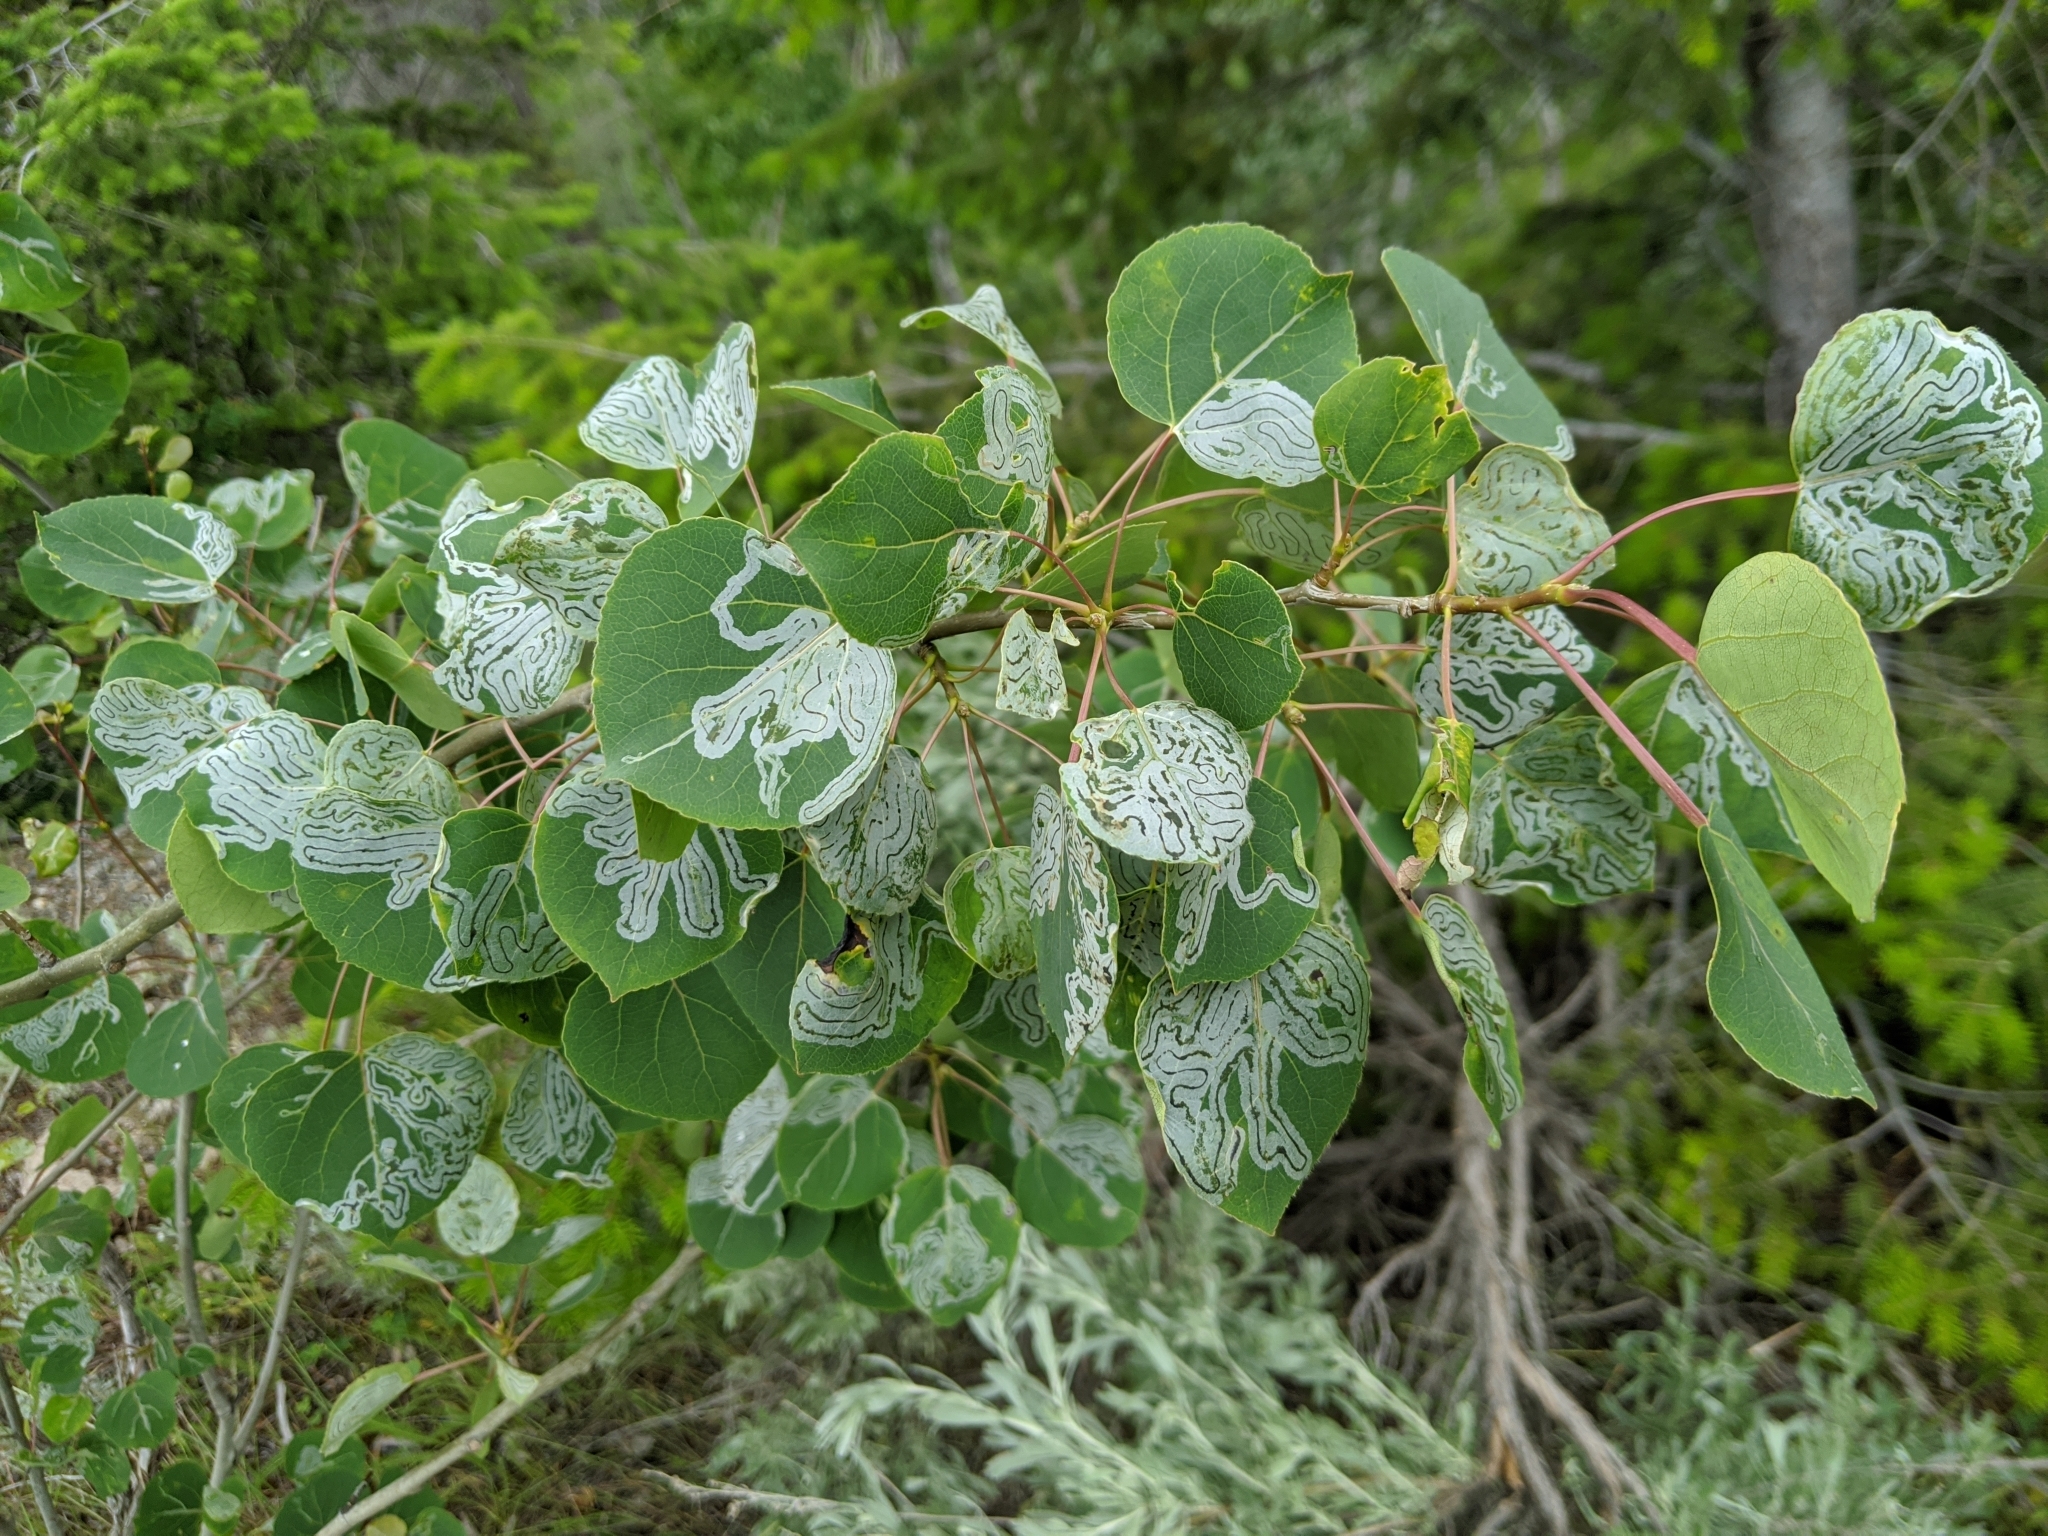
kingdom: Animalia
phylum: Arthropoda
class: Insecta
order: Lepidoptera
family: Gracillariidae
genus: Phyllocnistis
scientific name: Phyllocnistis populiella
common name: Aspen serpentine leafminer moth
